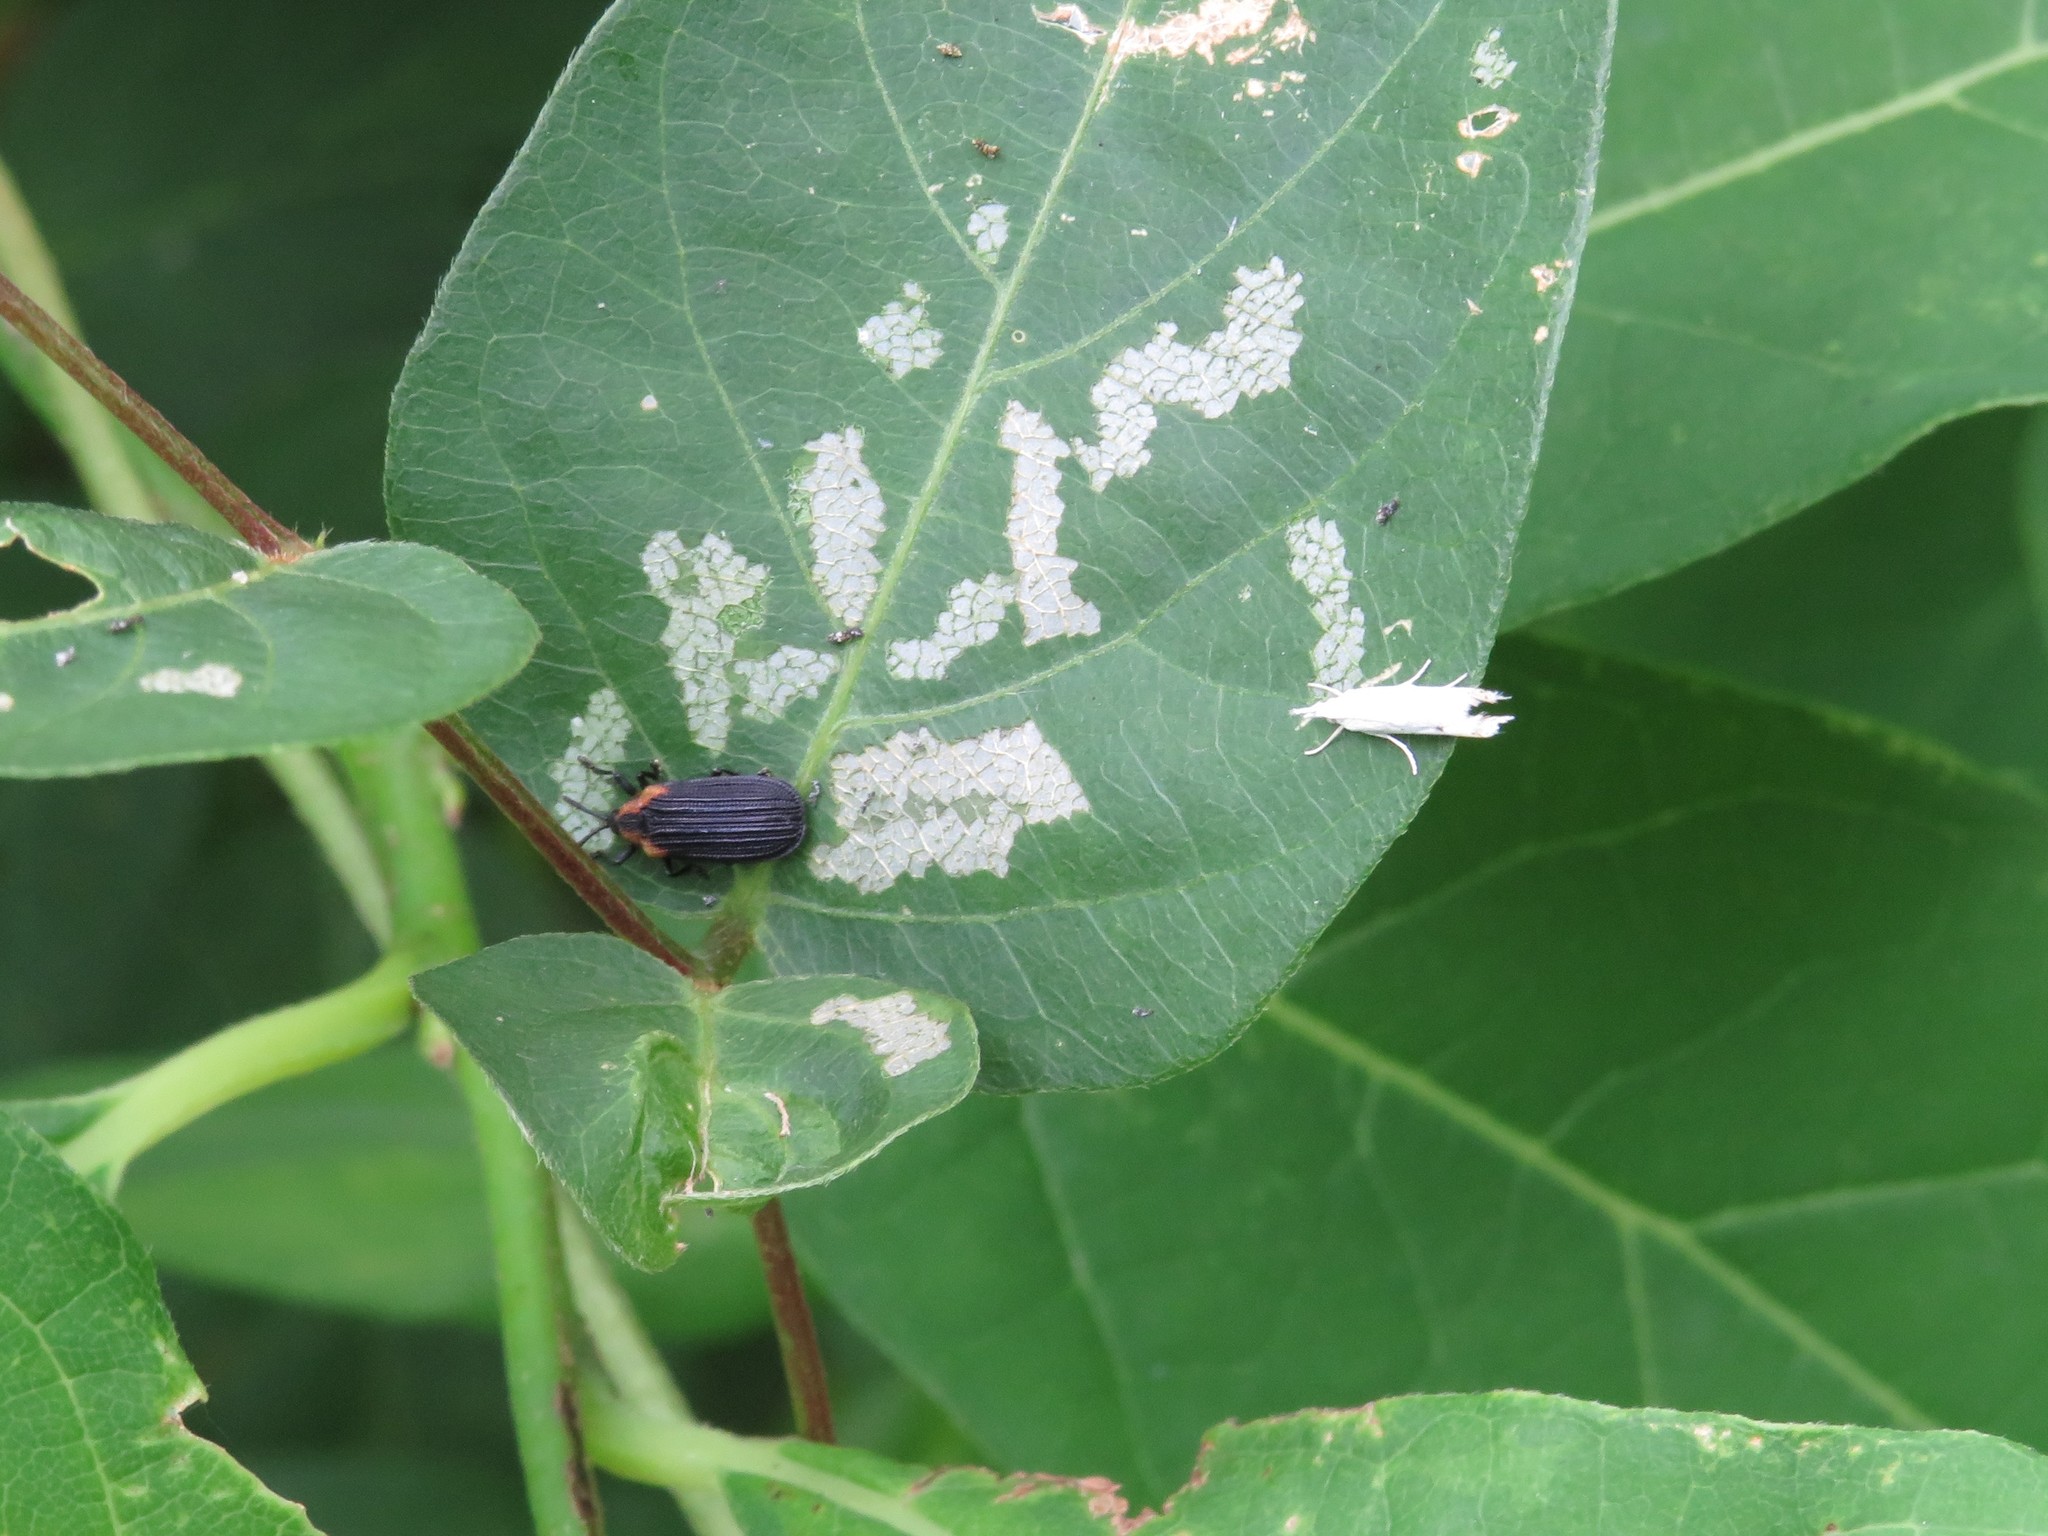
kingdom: Animalia
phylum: Arthropoda
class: Insecta
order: Coleoptera
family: Chrysomelidae
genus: Odontota
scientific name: Odontota scapularis
